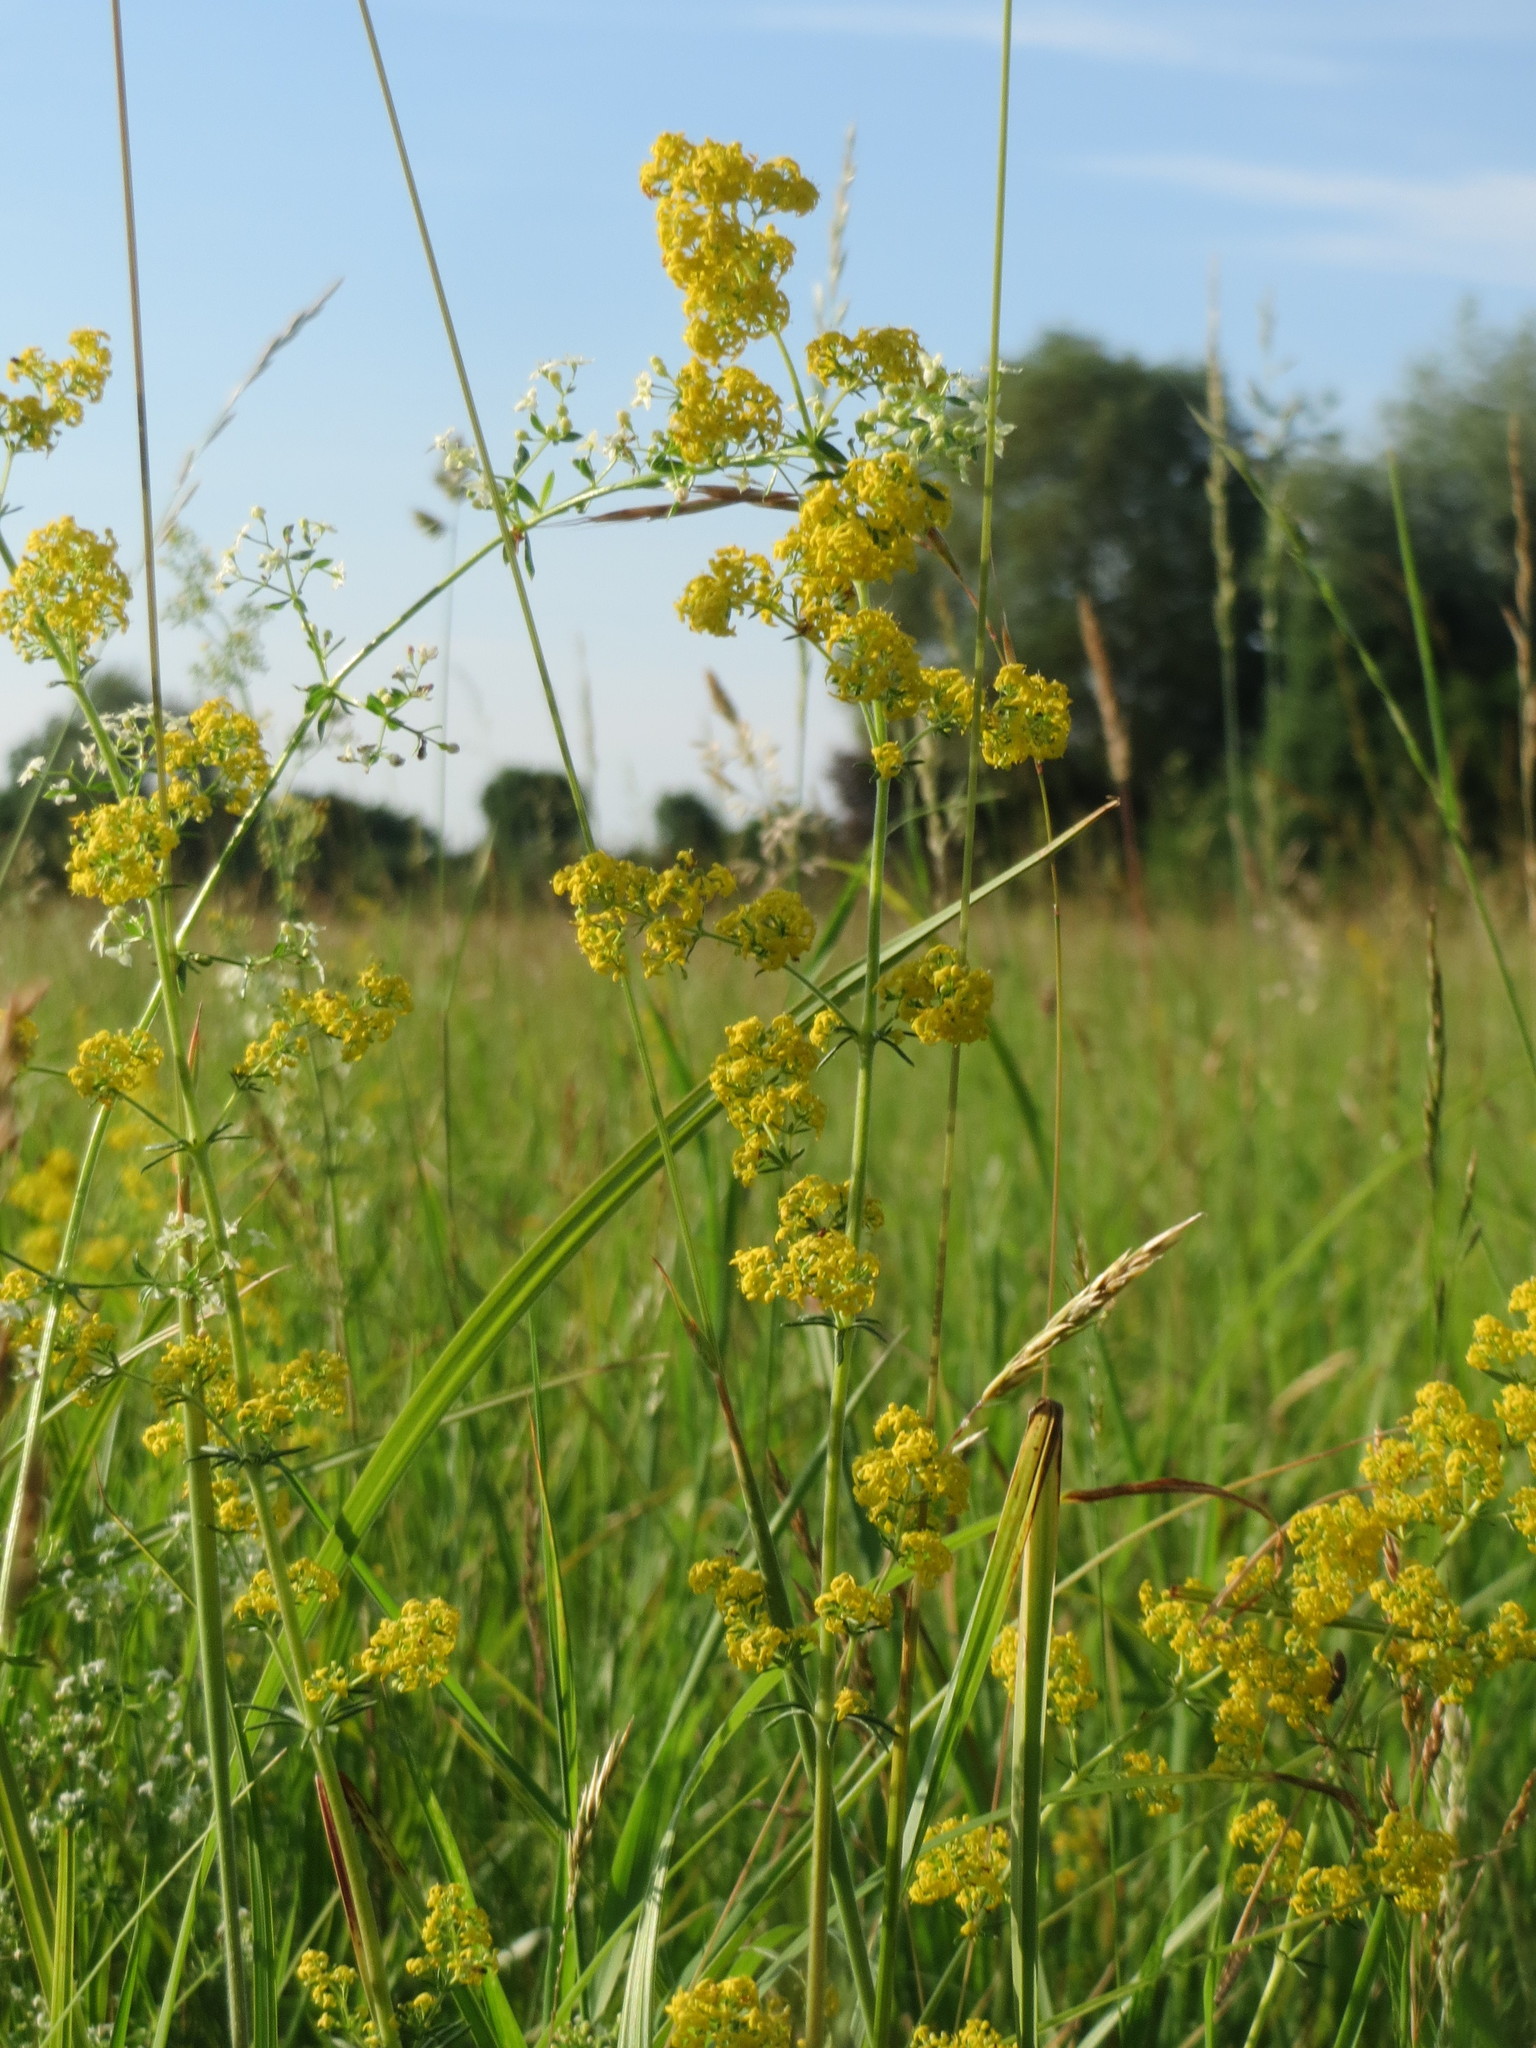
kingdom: Plantae
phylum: Tracheophyta
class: Magnoliopsida
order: Gentianales
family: Rubiaceae
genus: Galium
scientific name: Galium verum
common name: Lady's bedstraw
